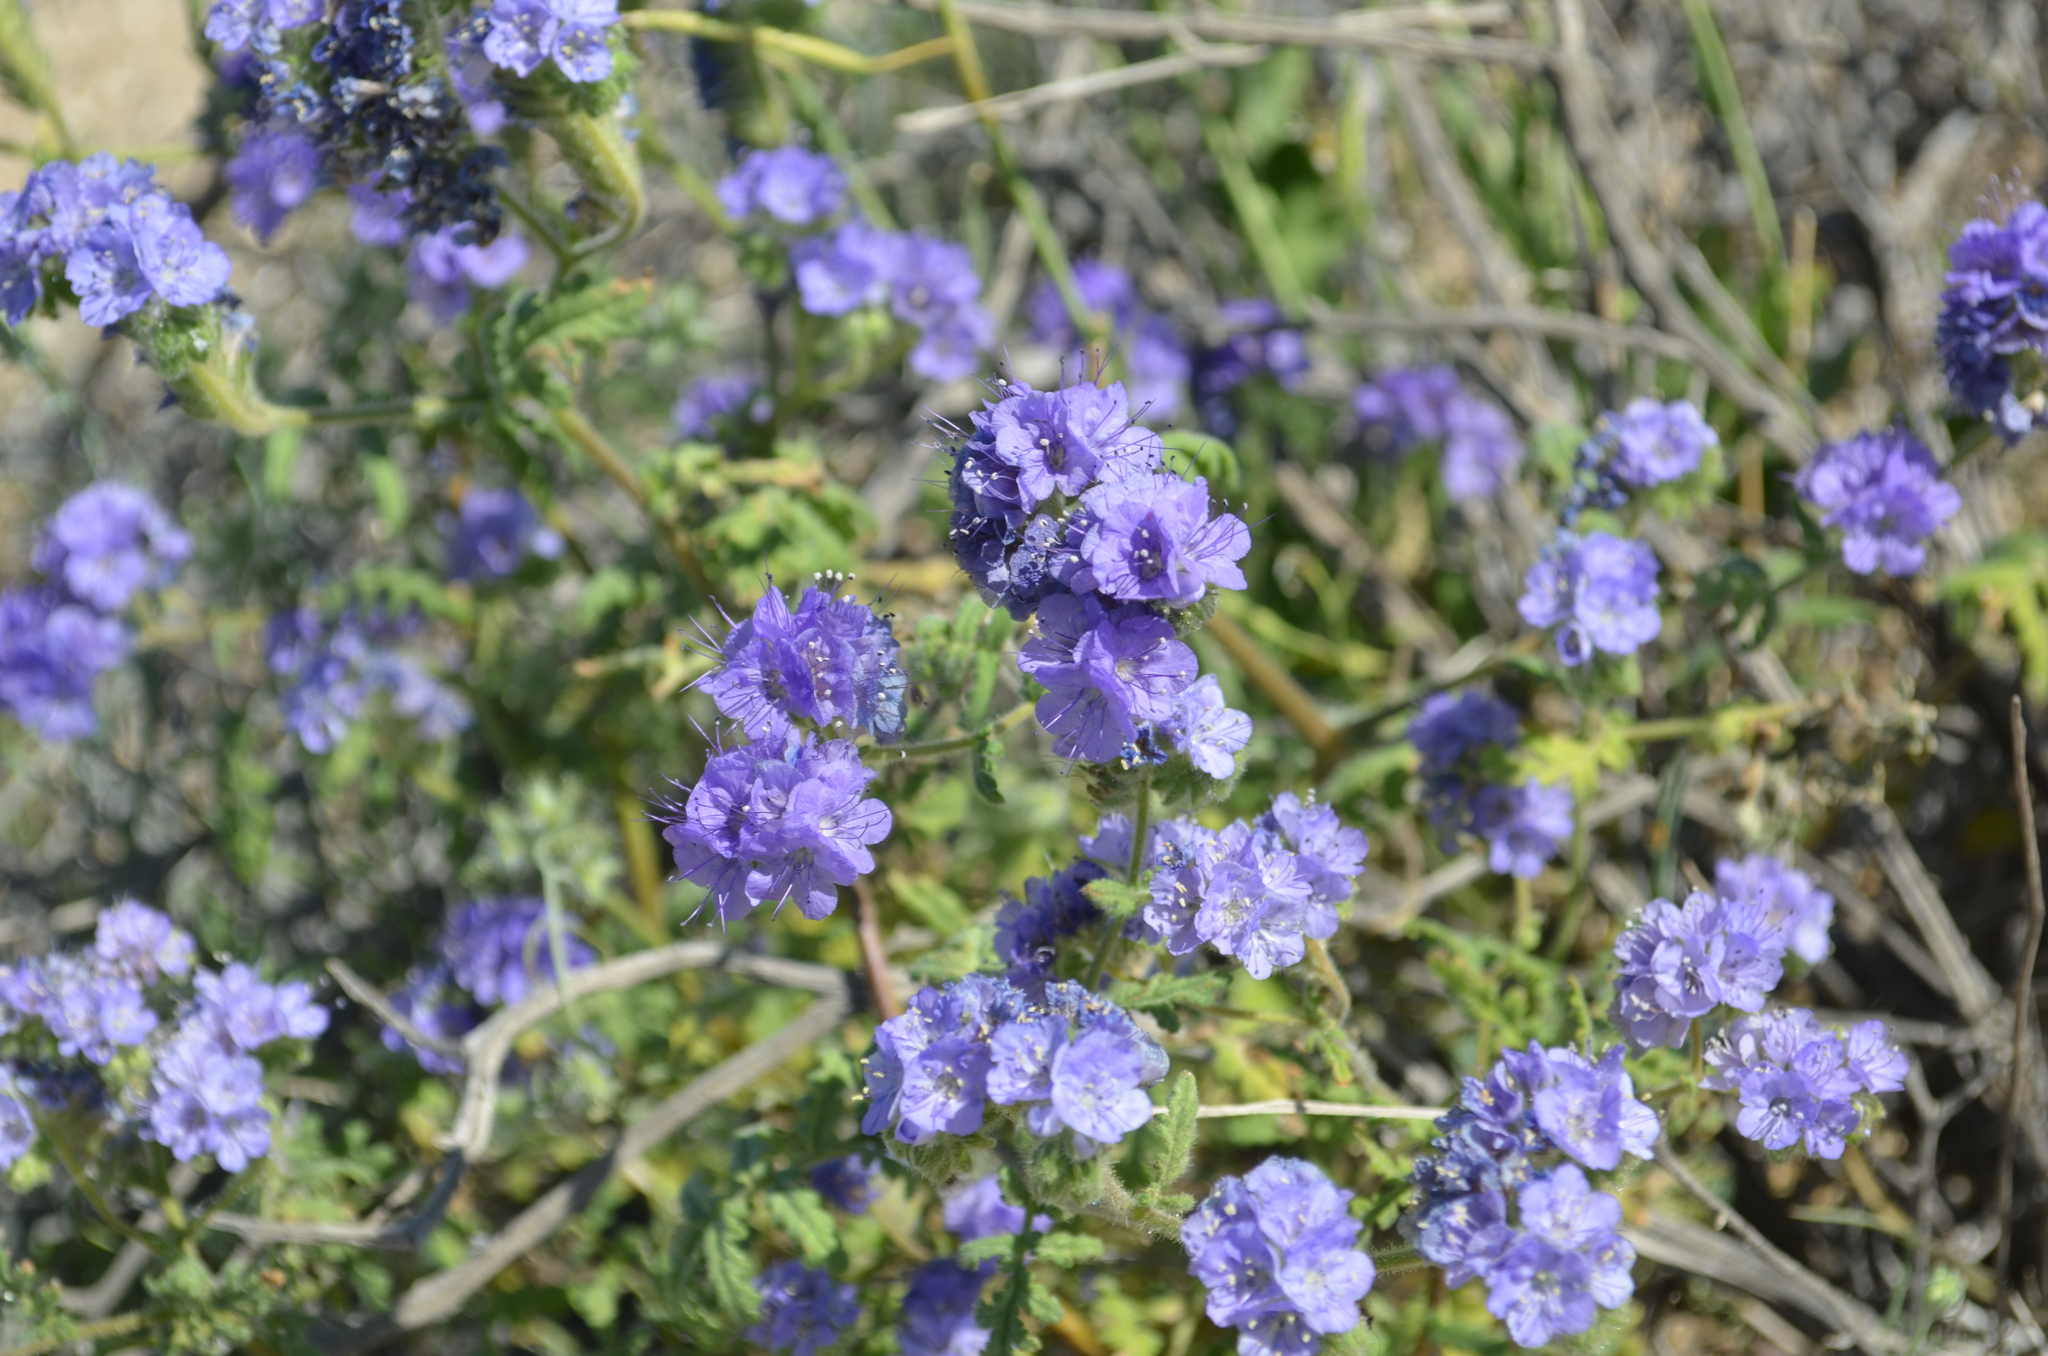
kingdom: Plantae
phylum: Tracheophyta
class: Magnoliopsida
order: Boraginales
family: Hydrophyllaceae
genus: Phacelia
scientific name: Phacelia distans
